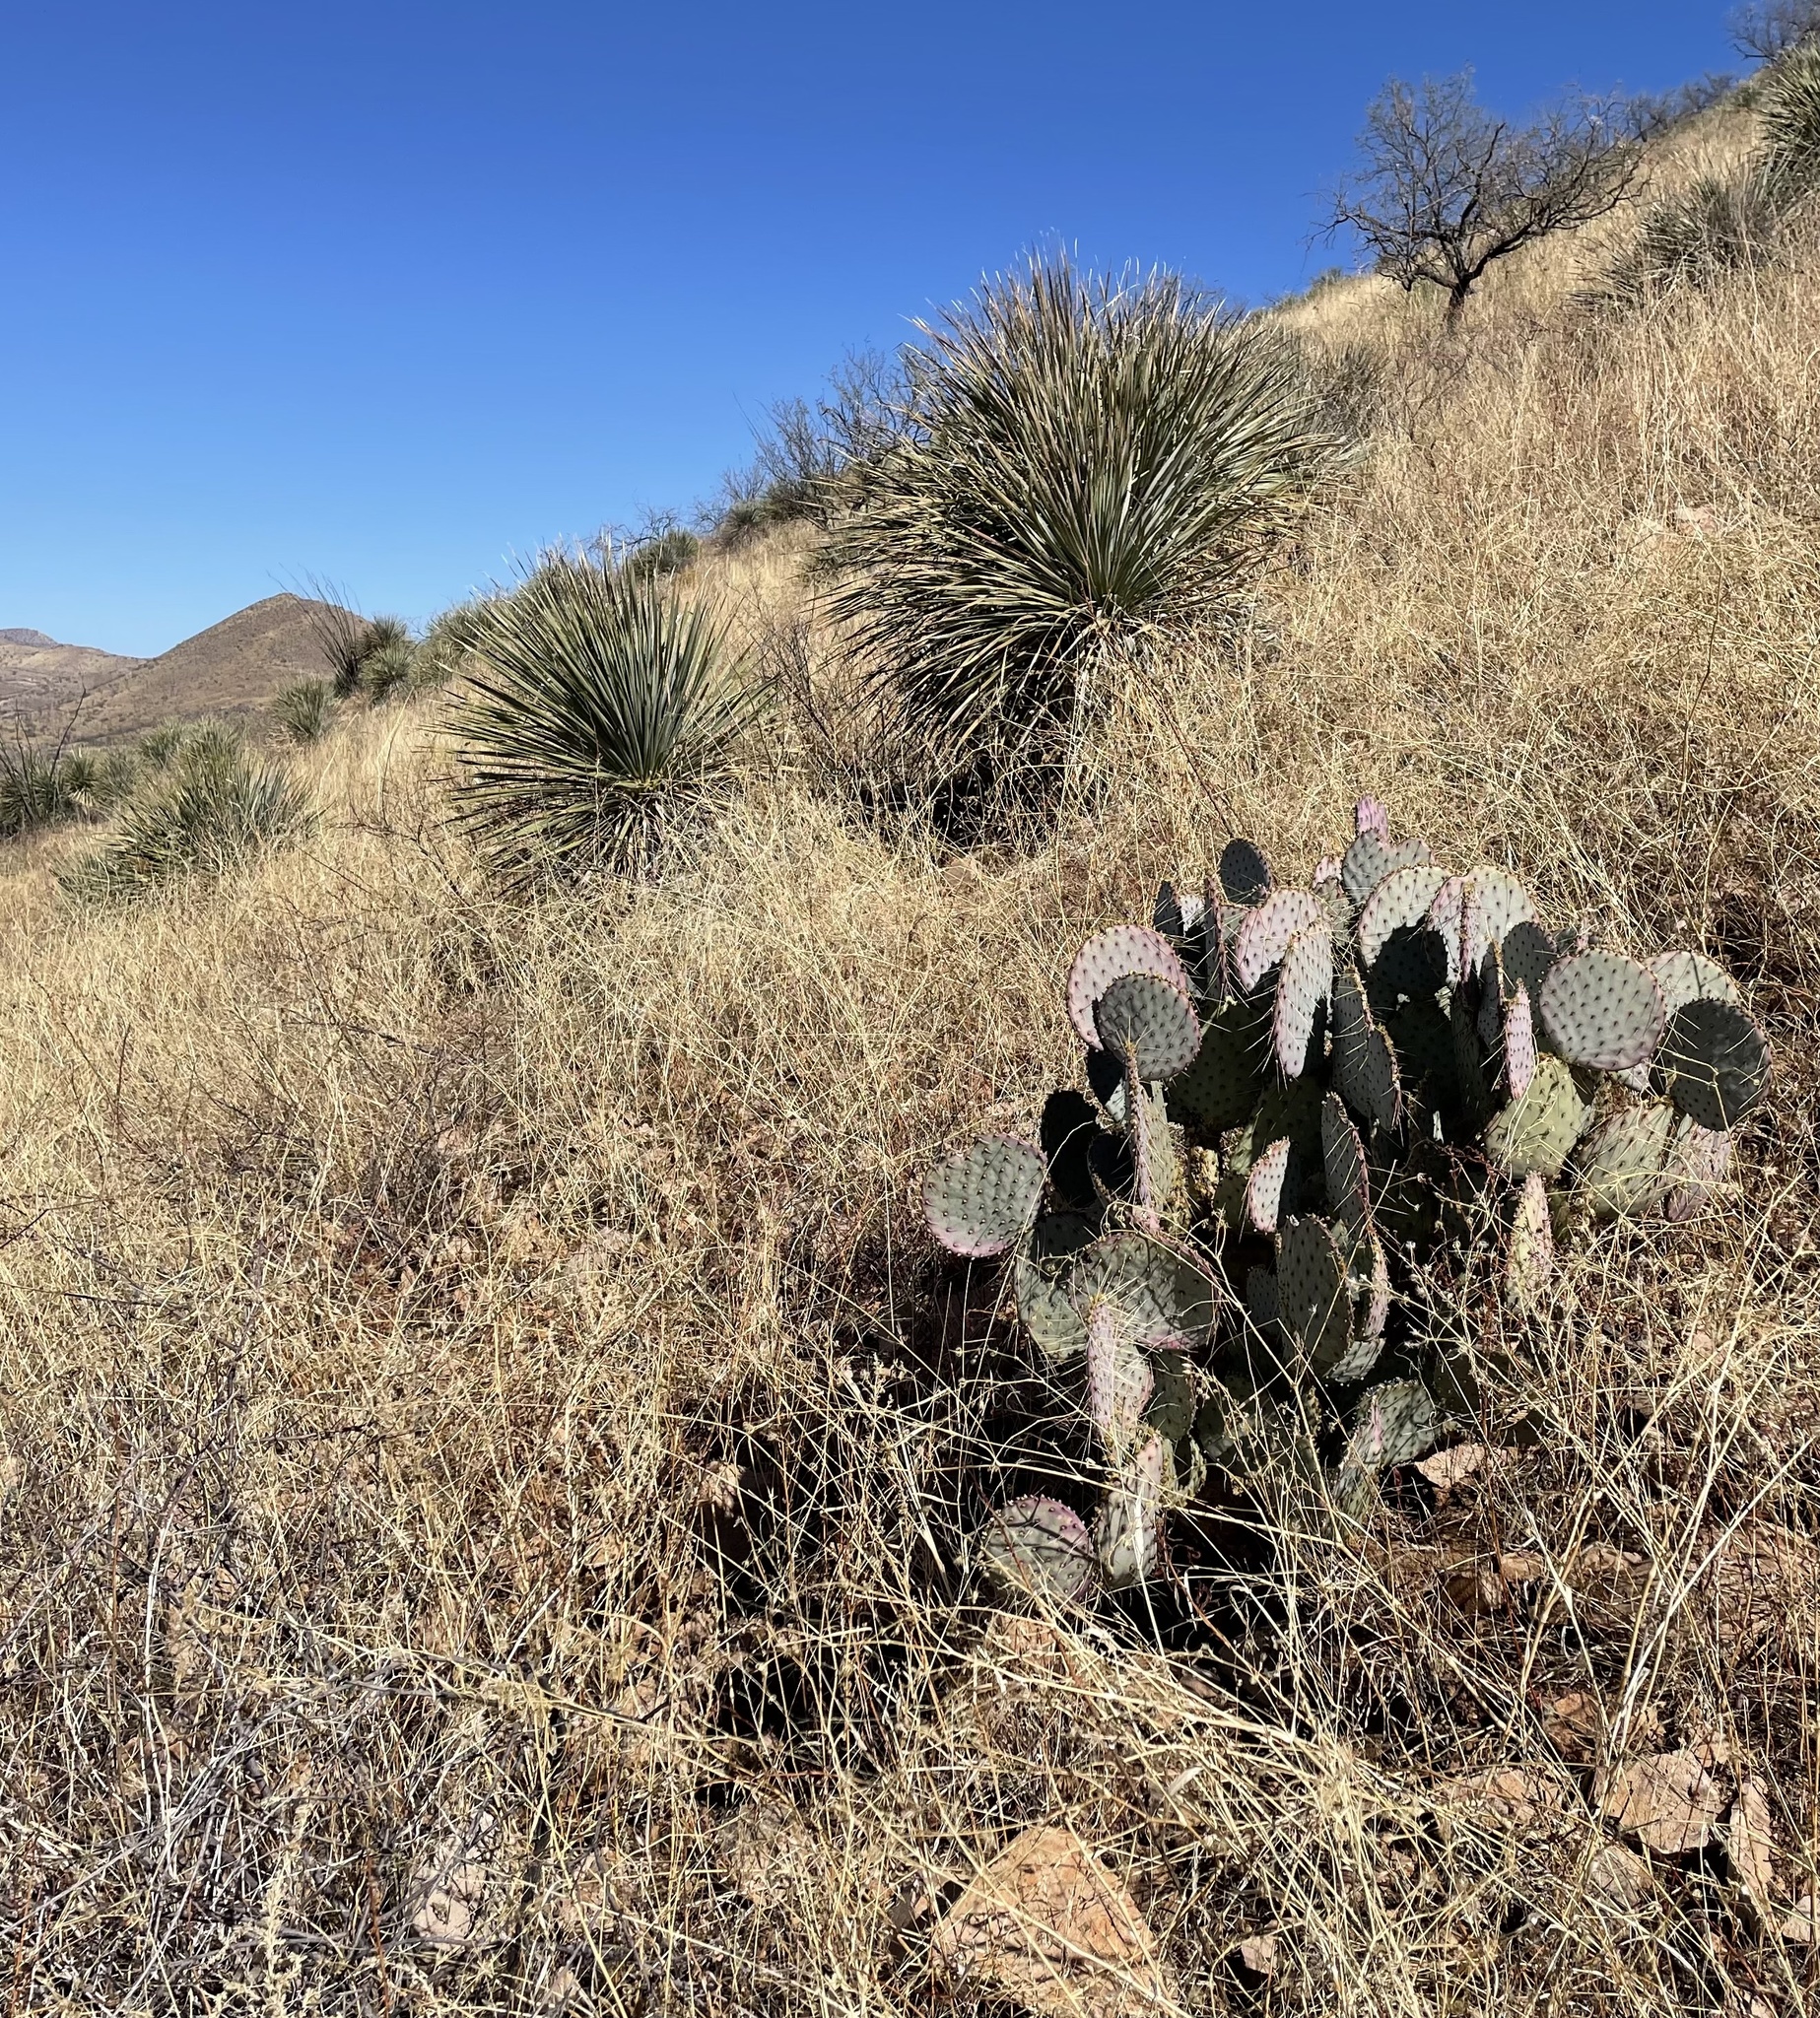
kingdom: Plantae
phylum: Tracheophyta
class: Magnoliopsida
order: Caryophyllales
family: Cactaceae
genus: Opuntia
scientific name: Opuntia gosseliniana
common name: Violet prickly-pear
